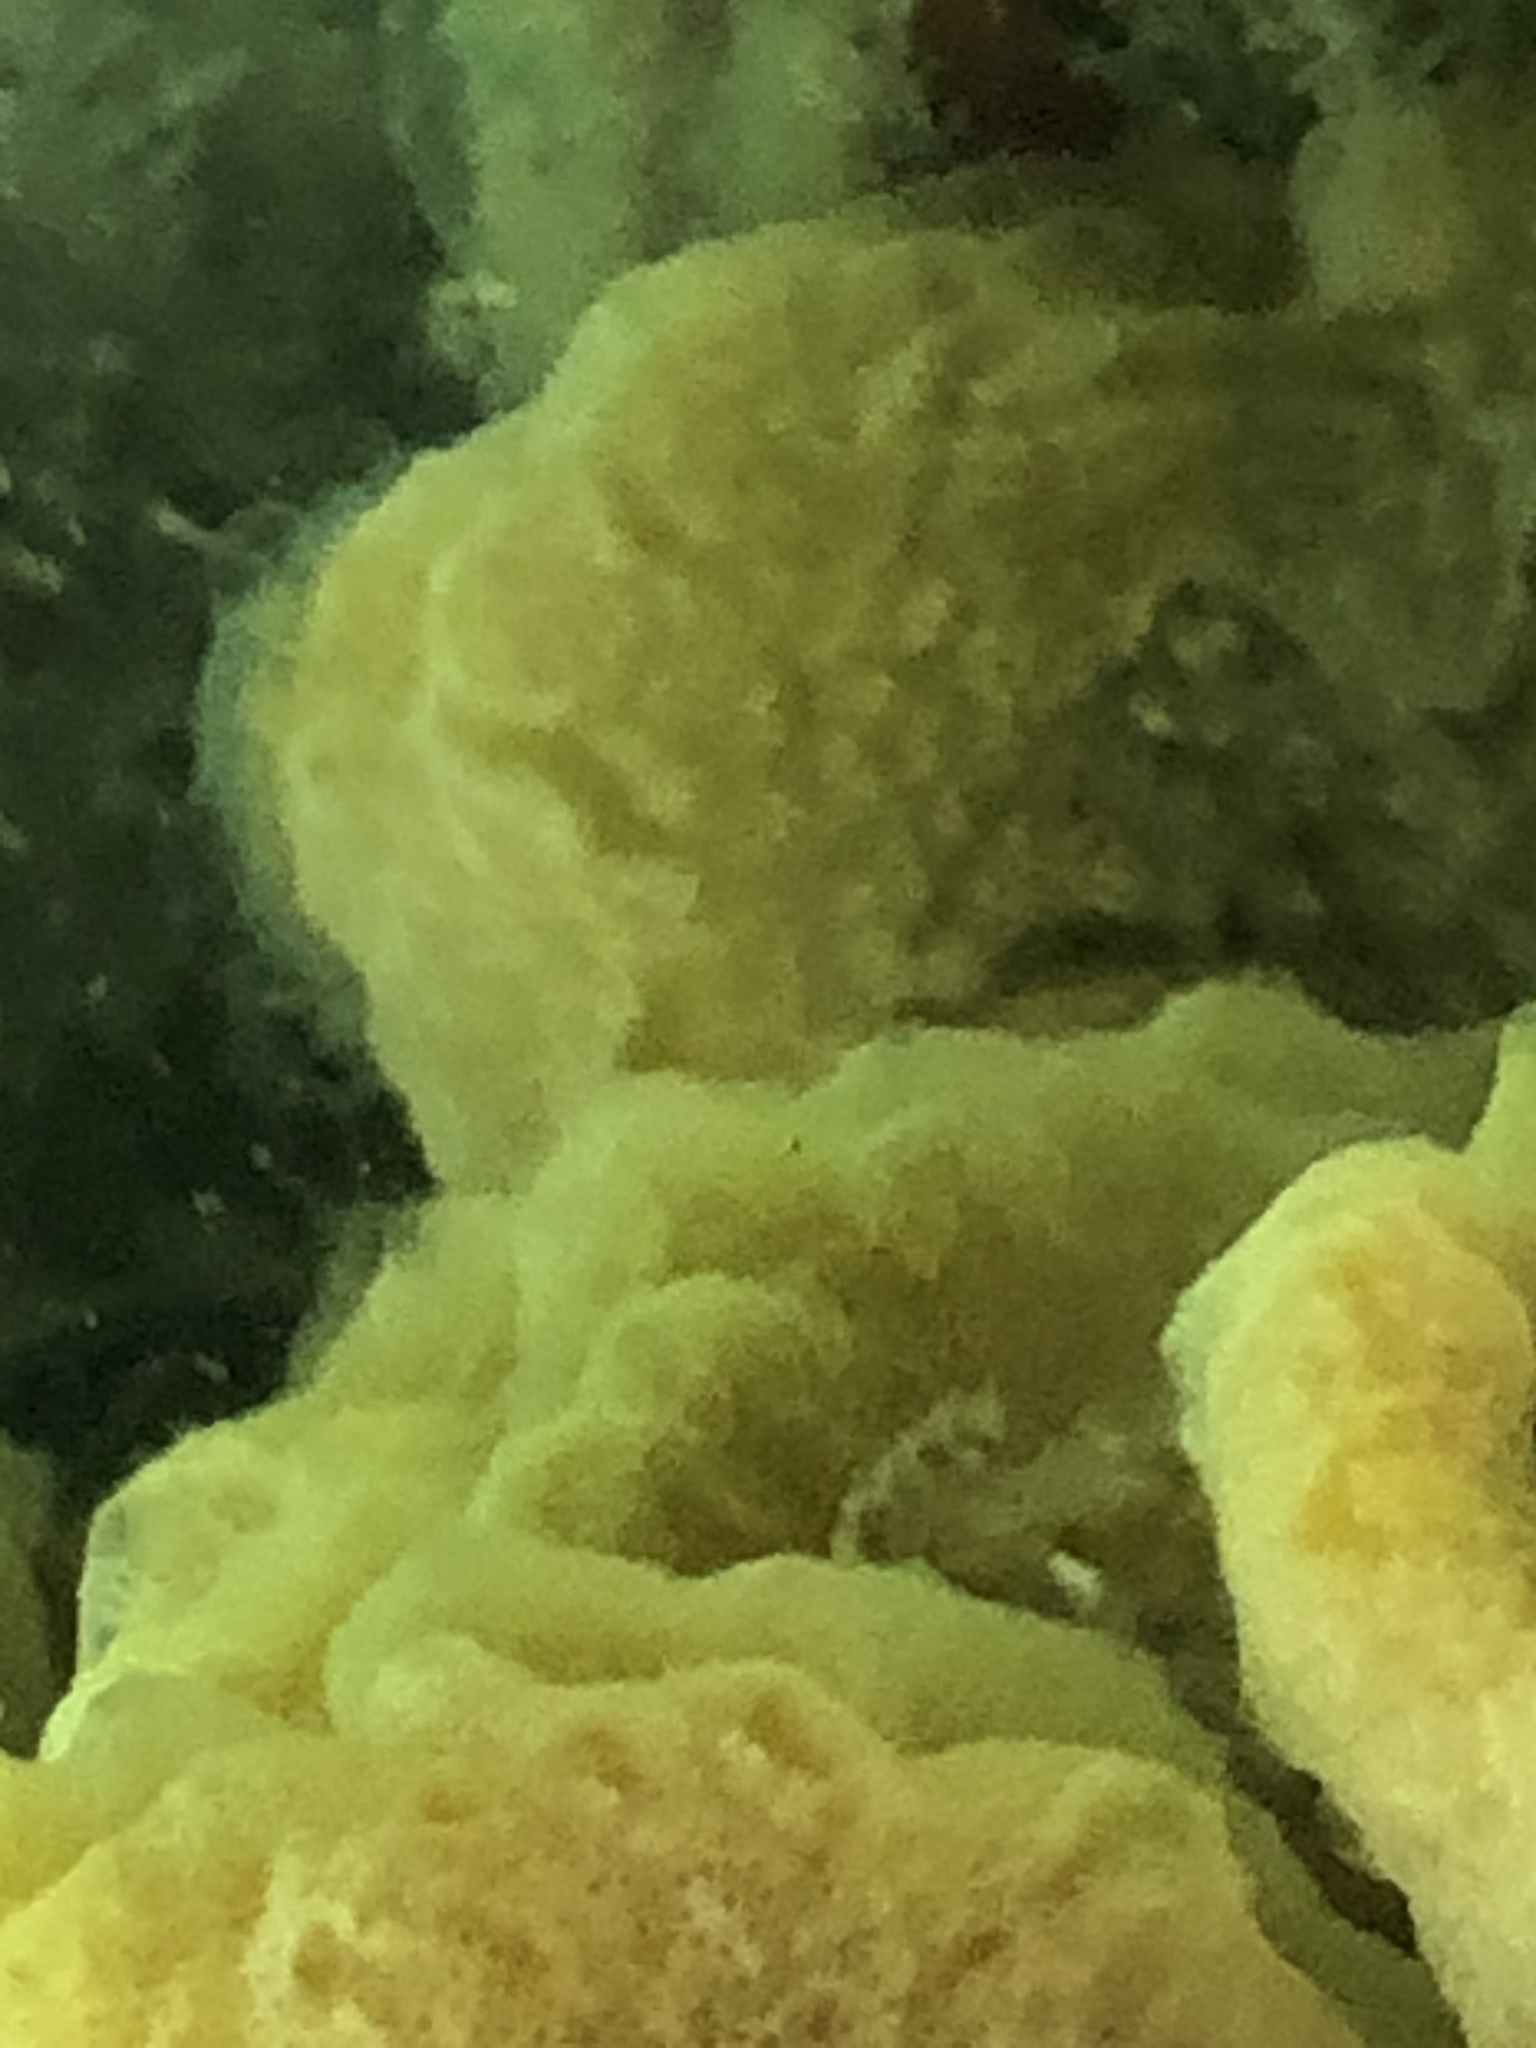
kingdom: Animalia
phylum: Chordata
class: Ascidiacea
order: Aplousobranchia
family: Didemnidae
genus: Didemnum
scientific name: Didemnum vexillum
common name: Compound sea squirt
